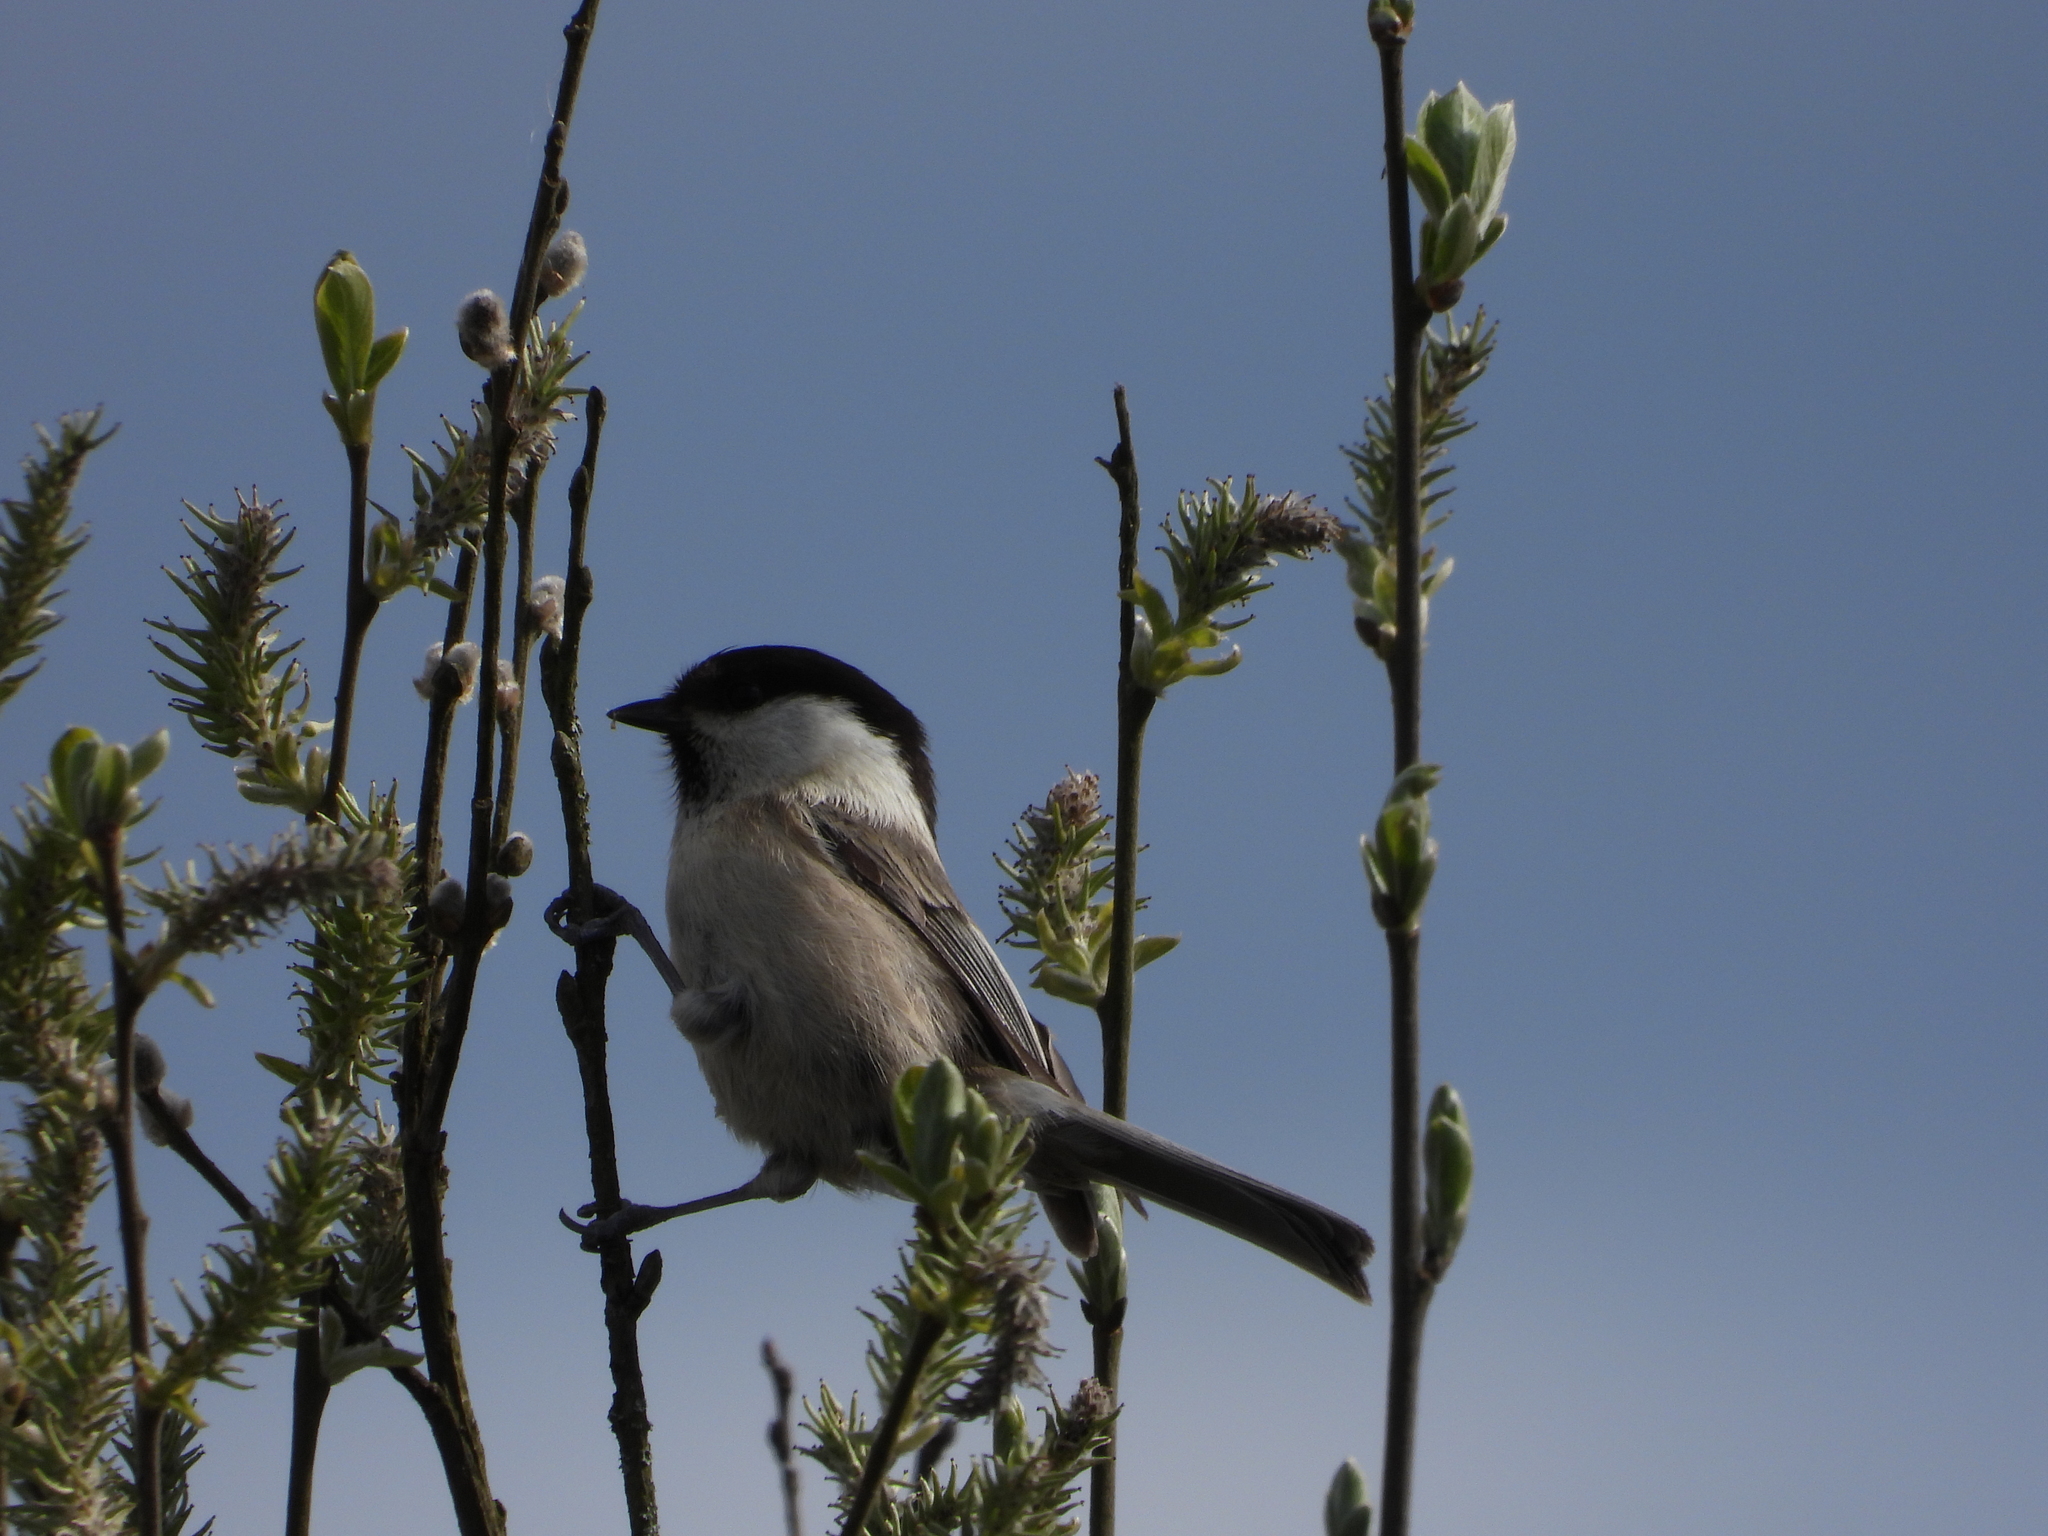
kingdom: Animalia
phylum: Chordata
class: Aves
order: Passeriformes
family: Paridae
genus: Poecile
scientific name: Poecile montanus
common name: Willow tit
